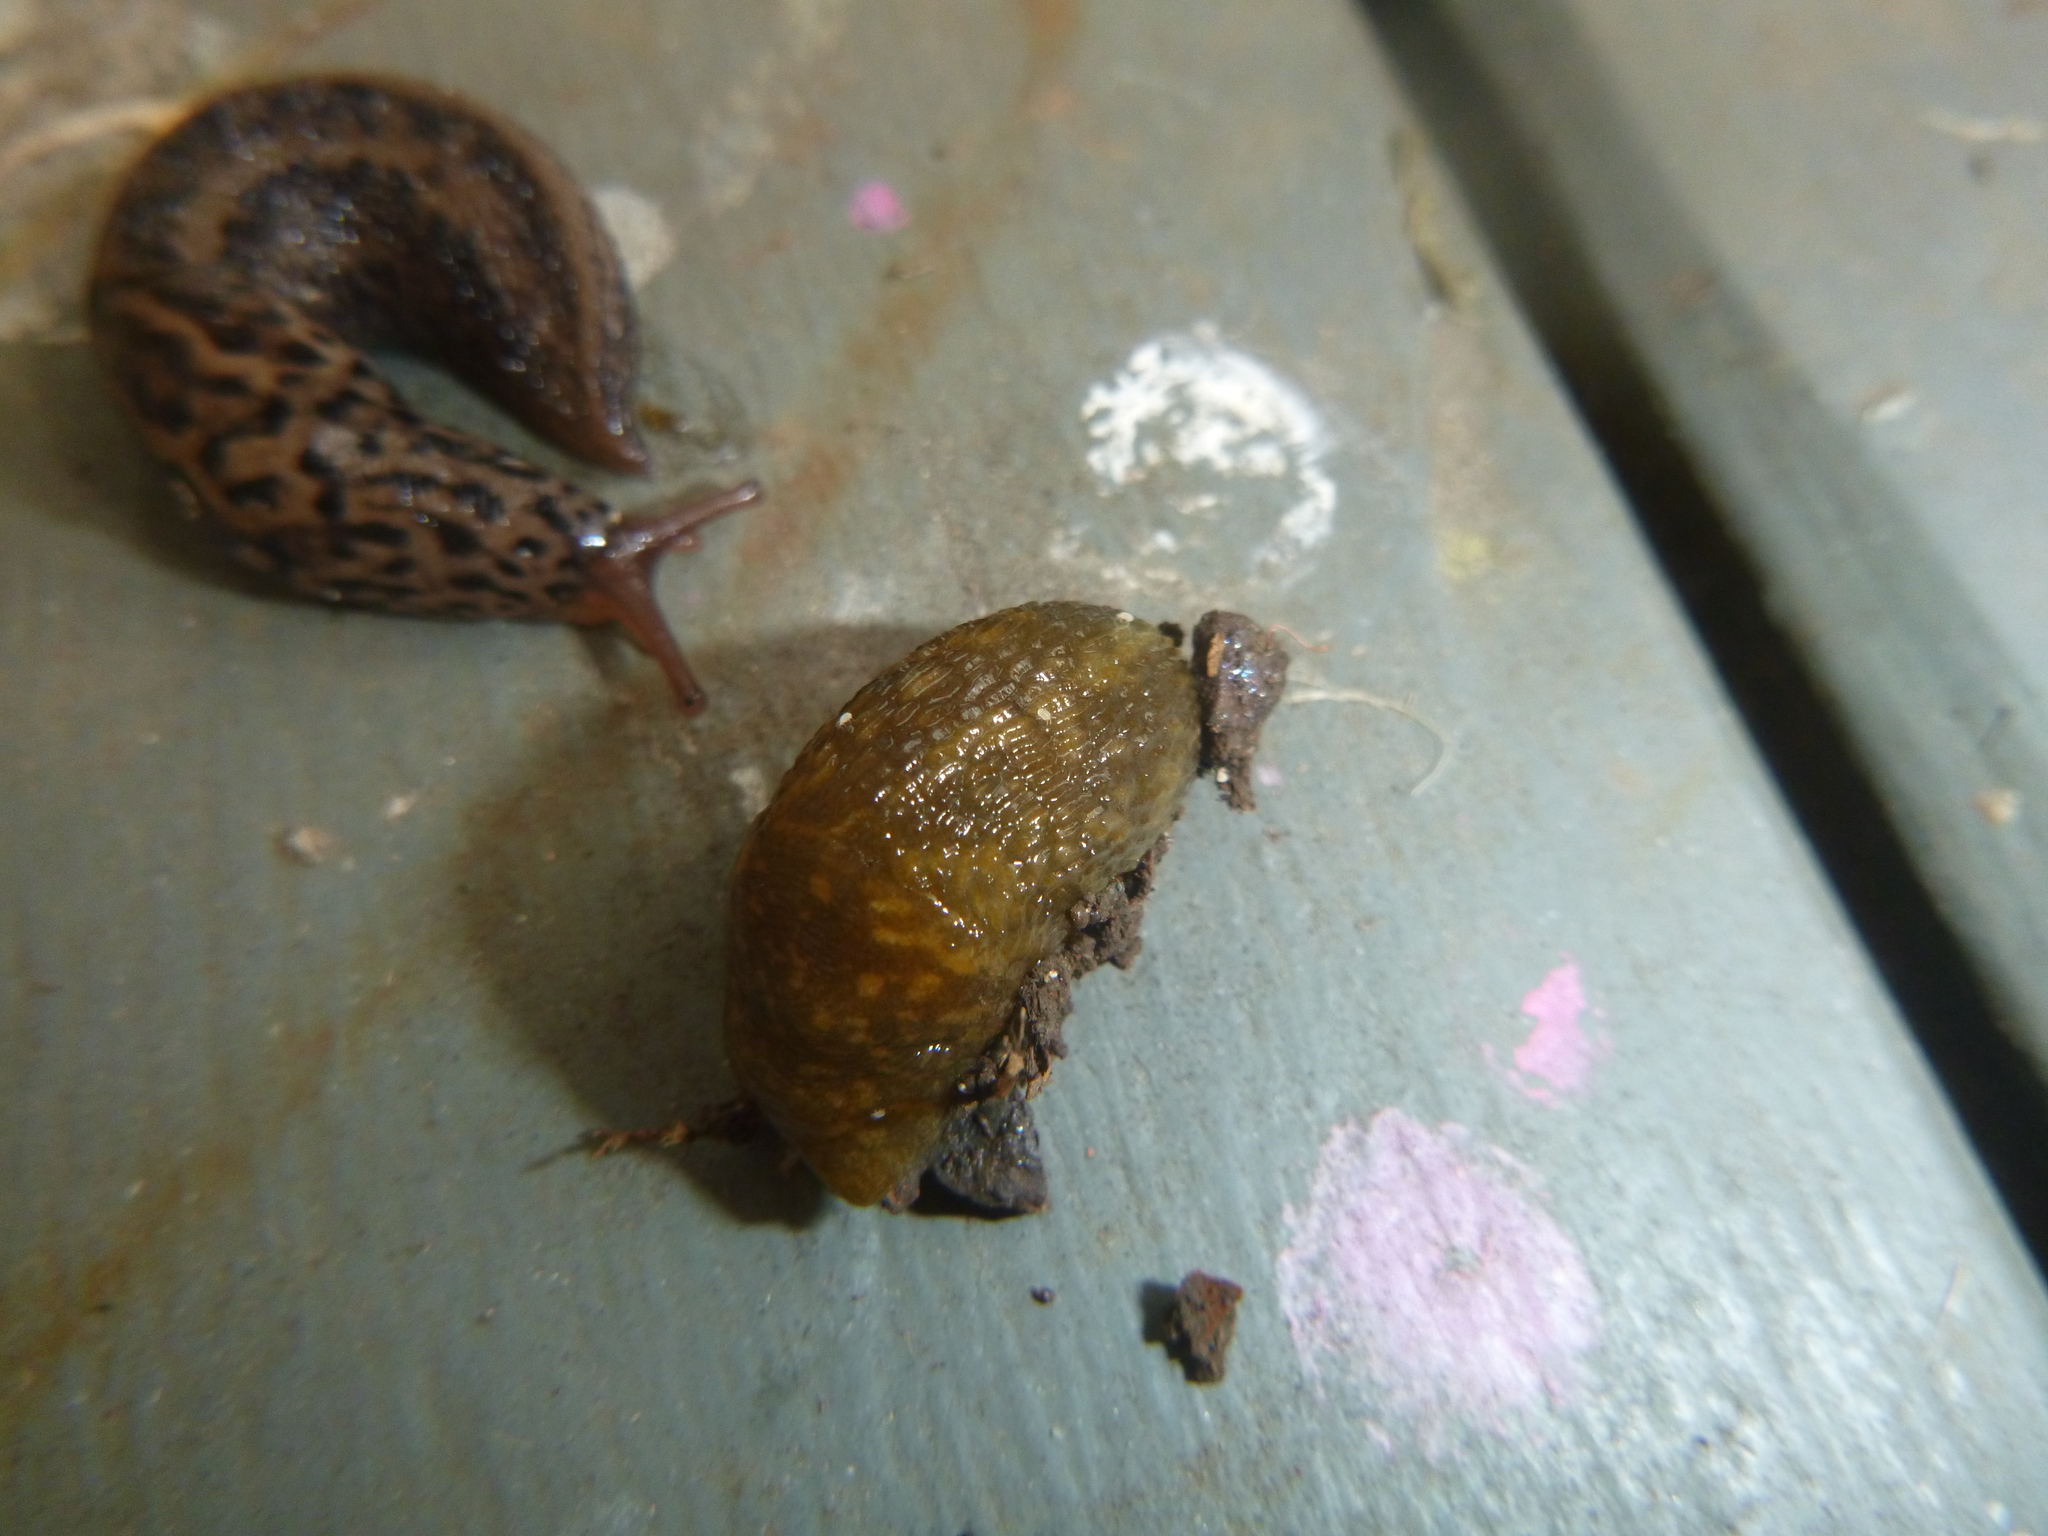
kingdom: Animalia
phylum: Mollusca
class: Gastropoda
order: Stylommatophora
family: Limacidae
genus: Limacus
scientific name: Limacus flavus
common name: Yellow gardenslug
